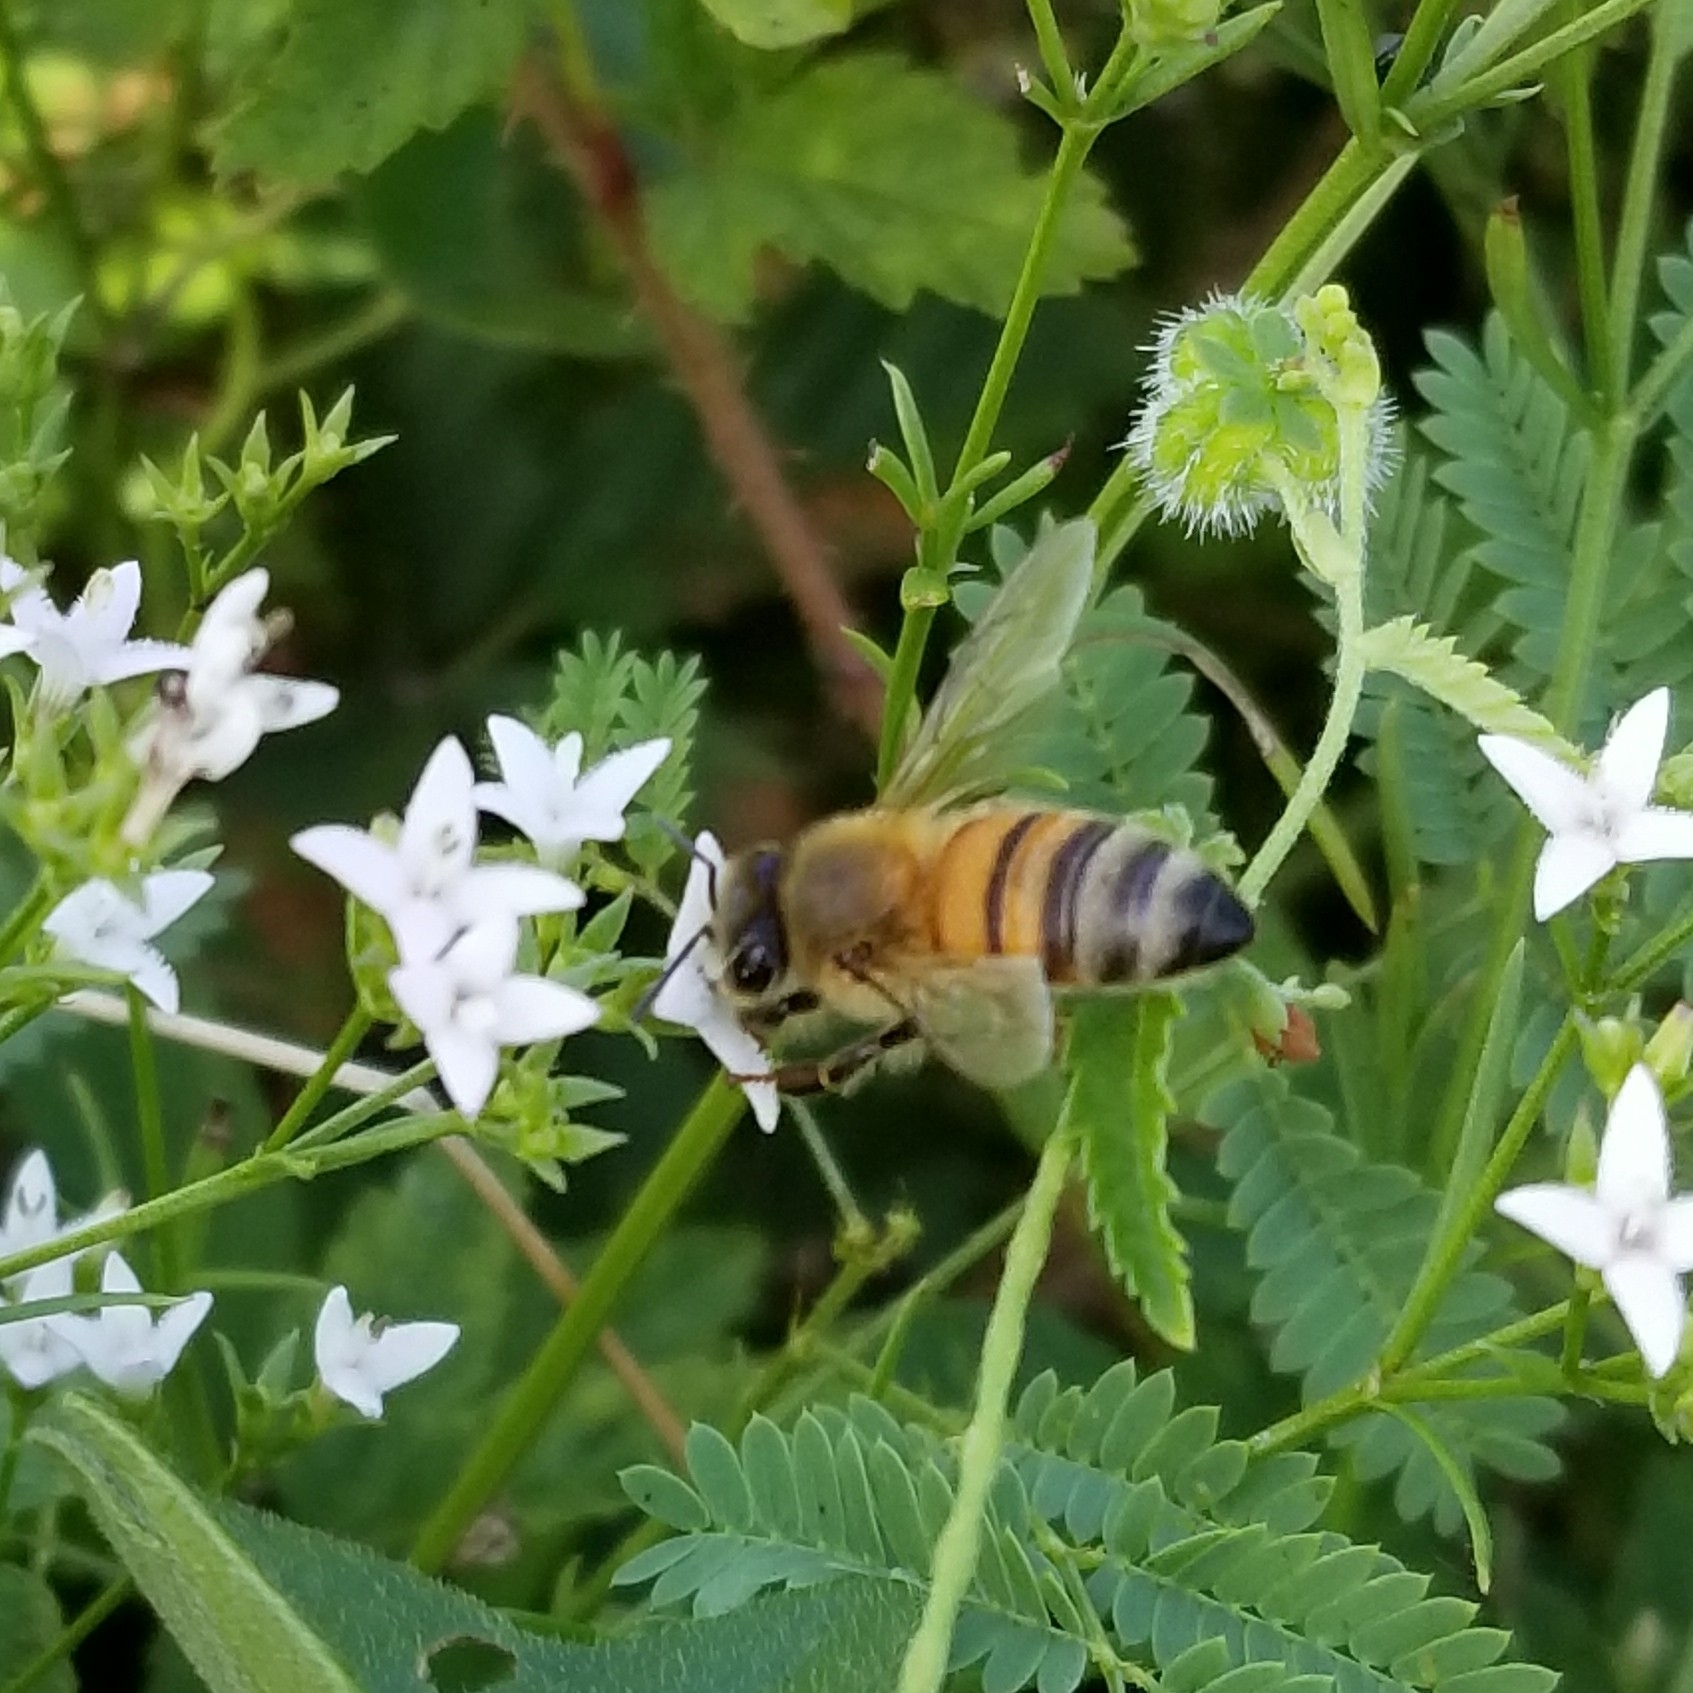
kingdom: Animalia
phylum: Arthropoda
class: Insecta
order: Hymenoptera
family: Apidae
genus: Apis
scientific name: Apis mellifera
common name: Honey bee
